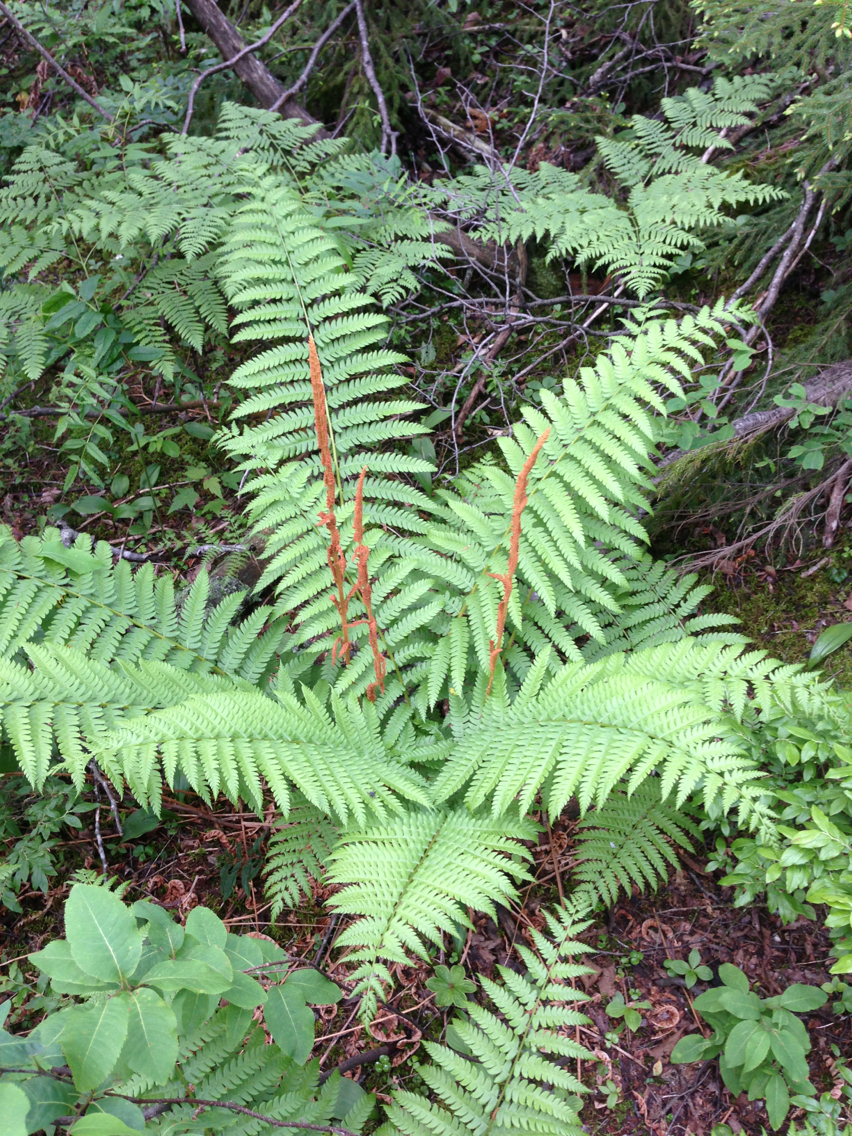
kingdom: Plantae
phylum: Tracheophyta
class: Polypodiopsida
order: Osmundales
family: Osmundaceae
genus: Osmundastrum
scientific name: Osmundastrum cinnamomeum
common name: Cinnamon fern
